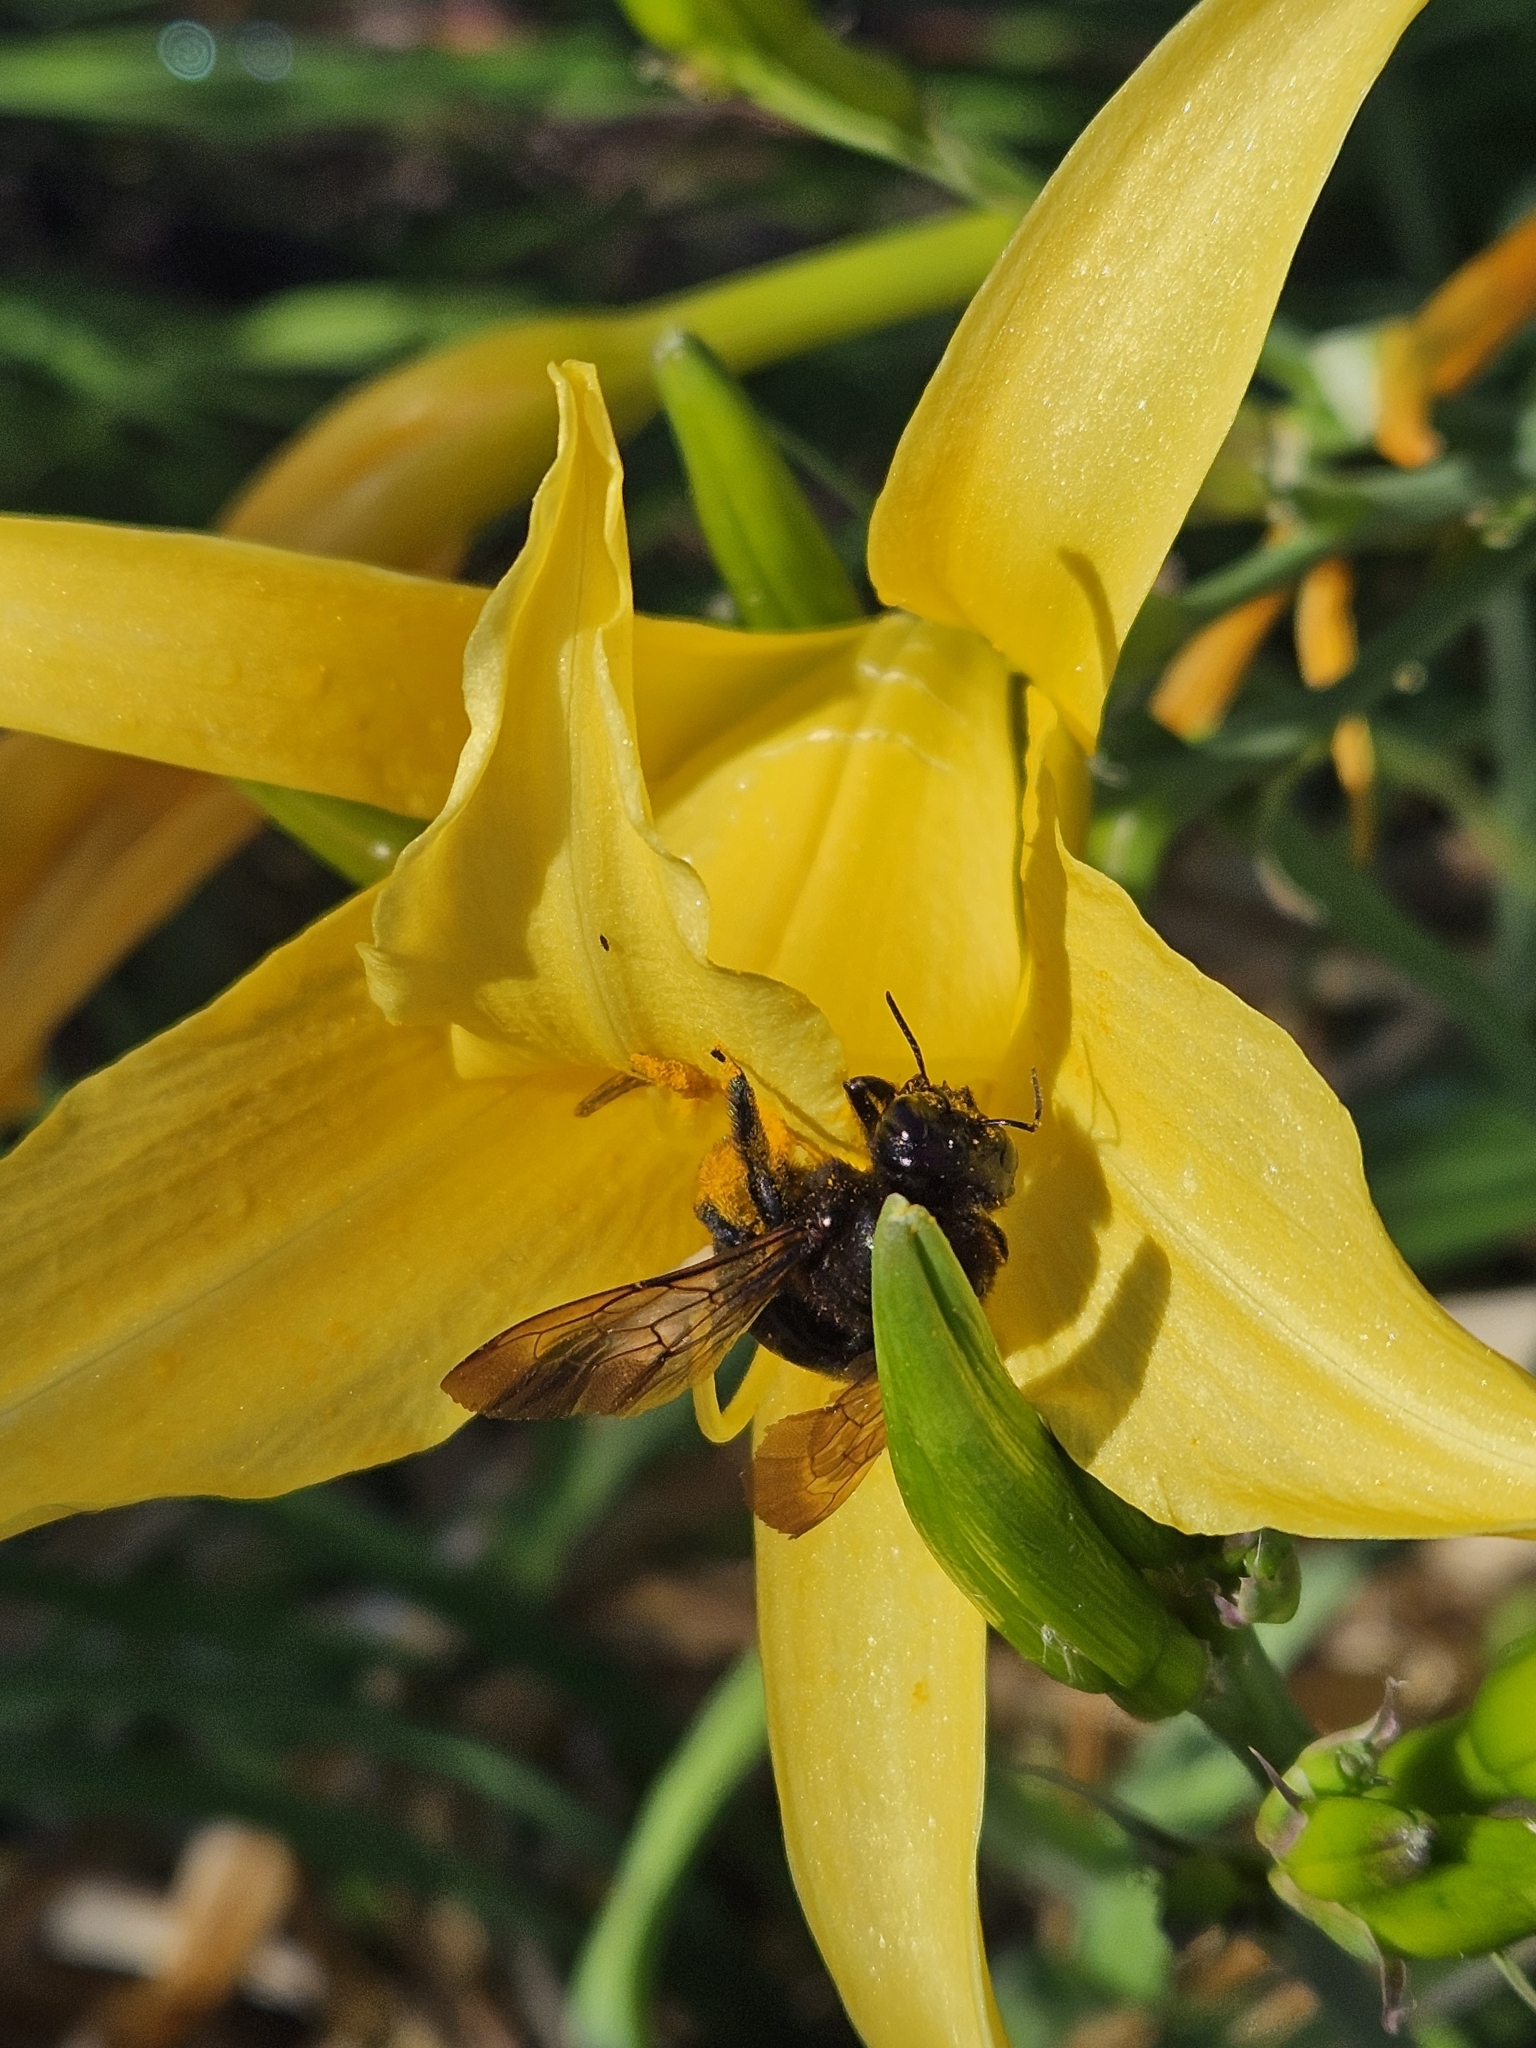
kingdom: Animalia
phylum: Arthropoda
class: Insecta
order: Hymenoptera
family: Apidae
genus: Xylocopa
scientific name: Xylocopa sonorina
